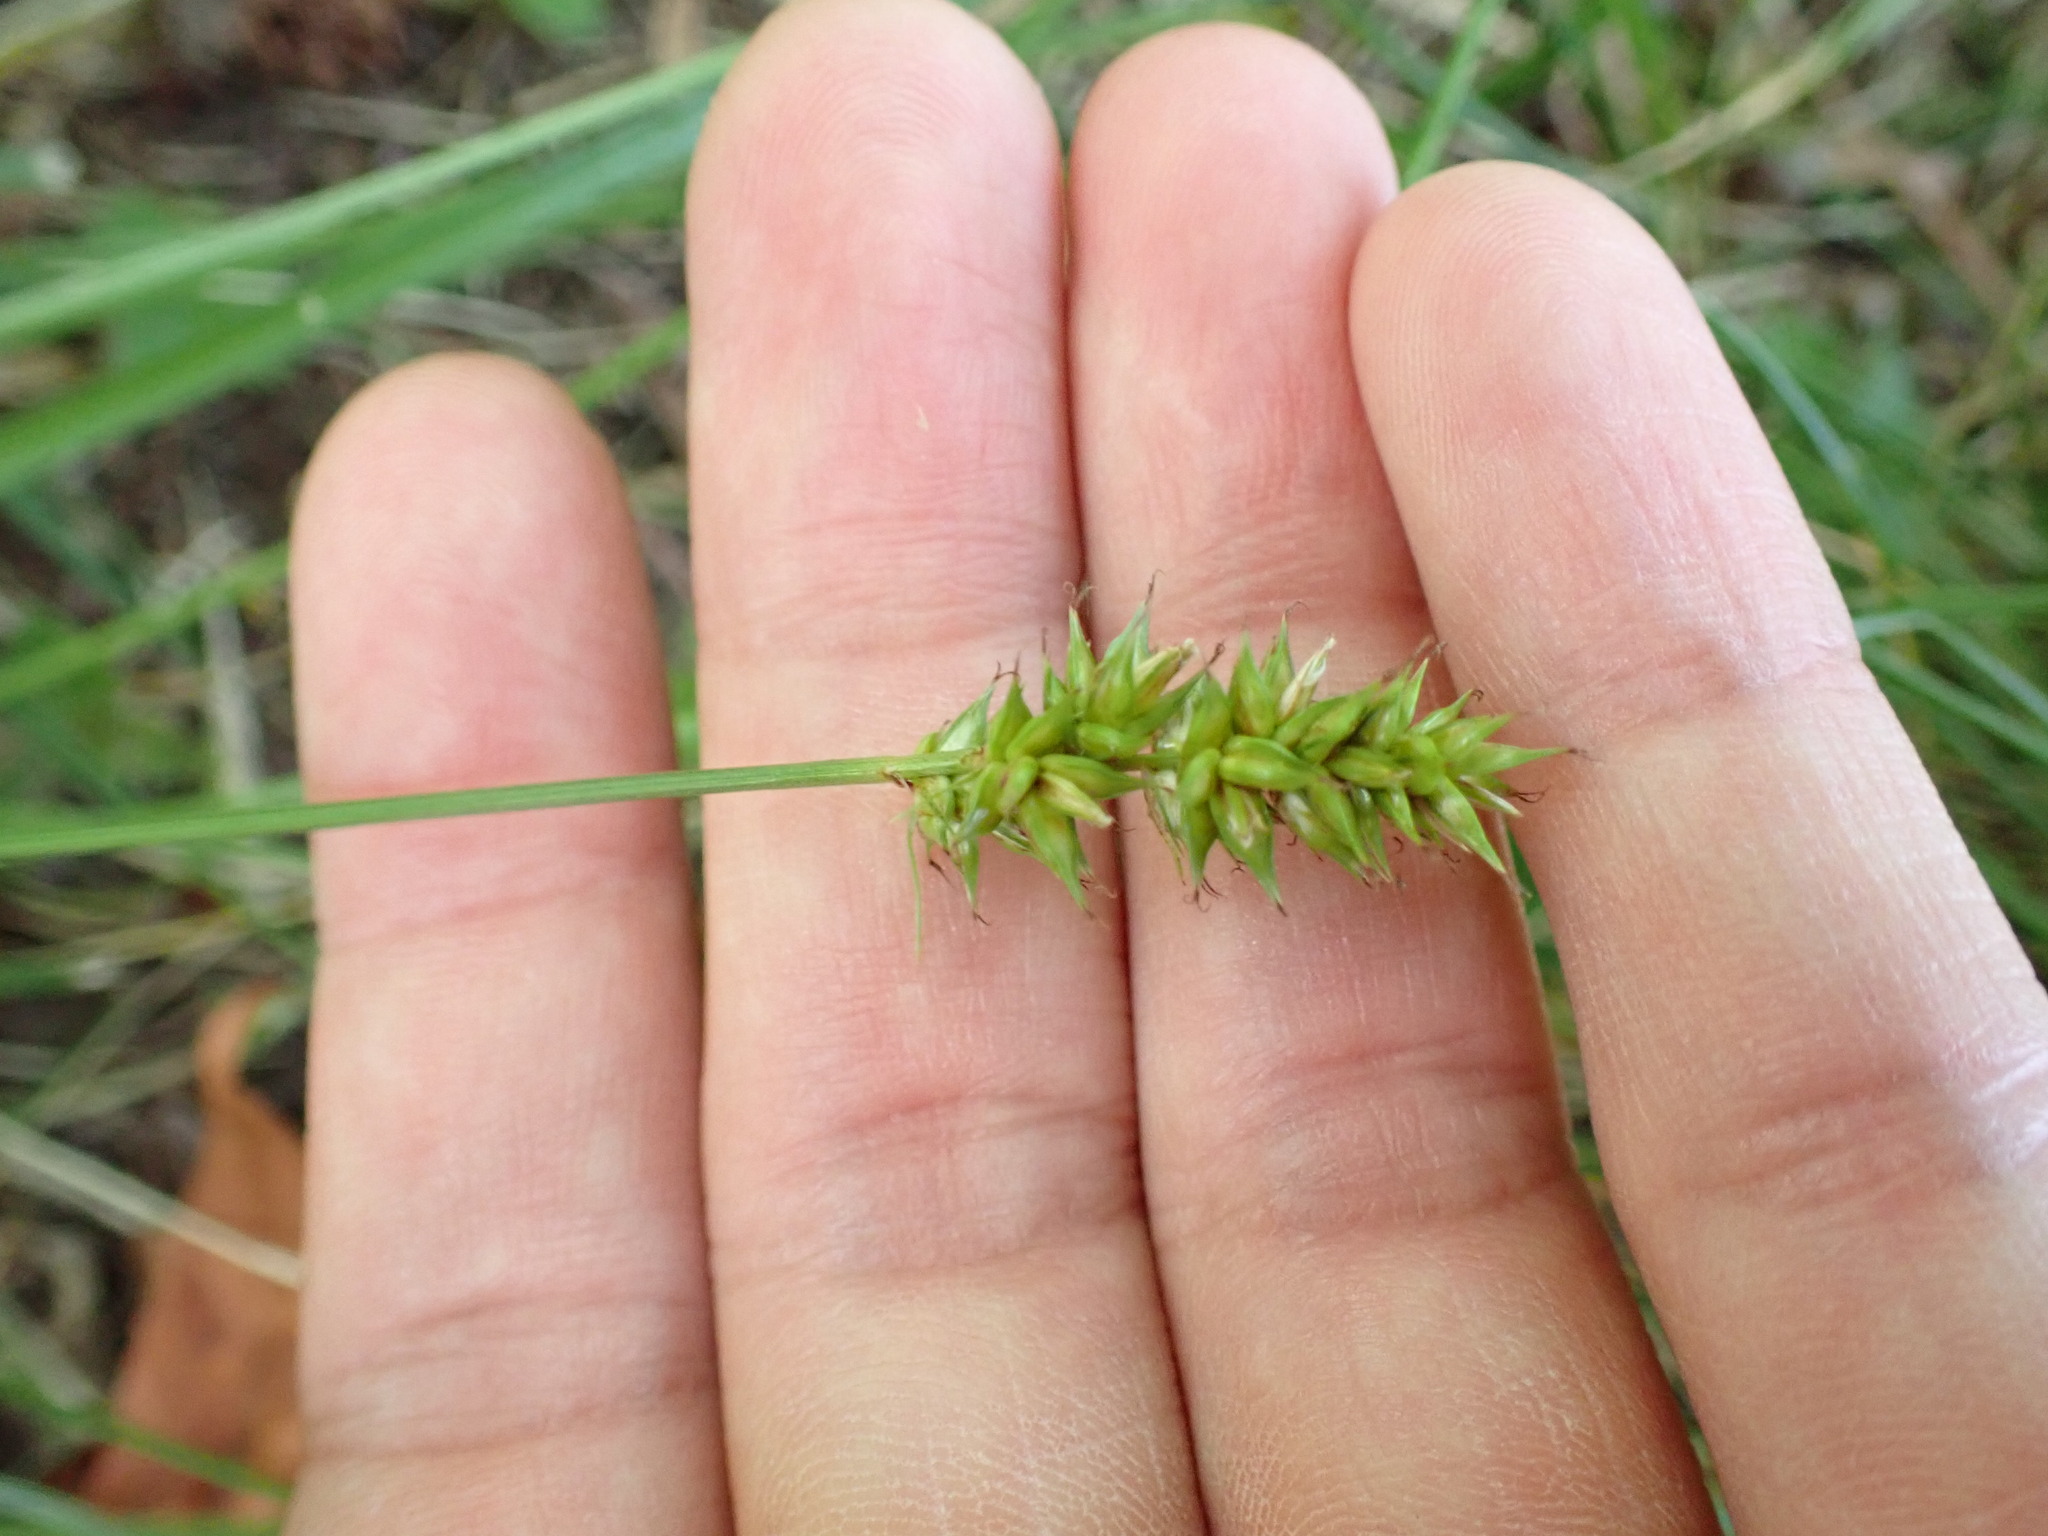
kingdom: Plantae
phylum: Tracheophyta
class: Liliopsida
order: Poales
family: Cyperaceae
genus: Carex
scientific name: Carex spicata
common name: Spiked sedge
